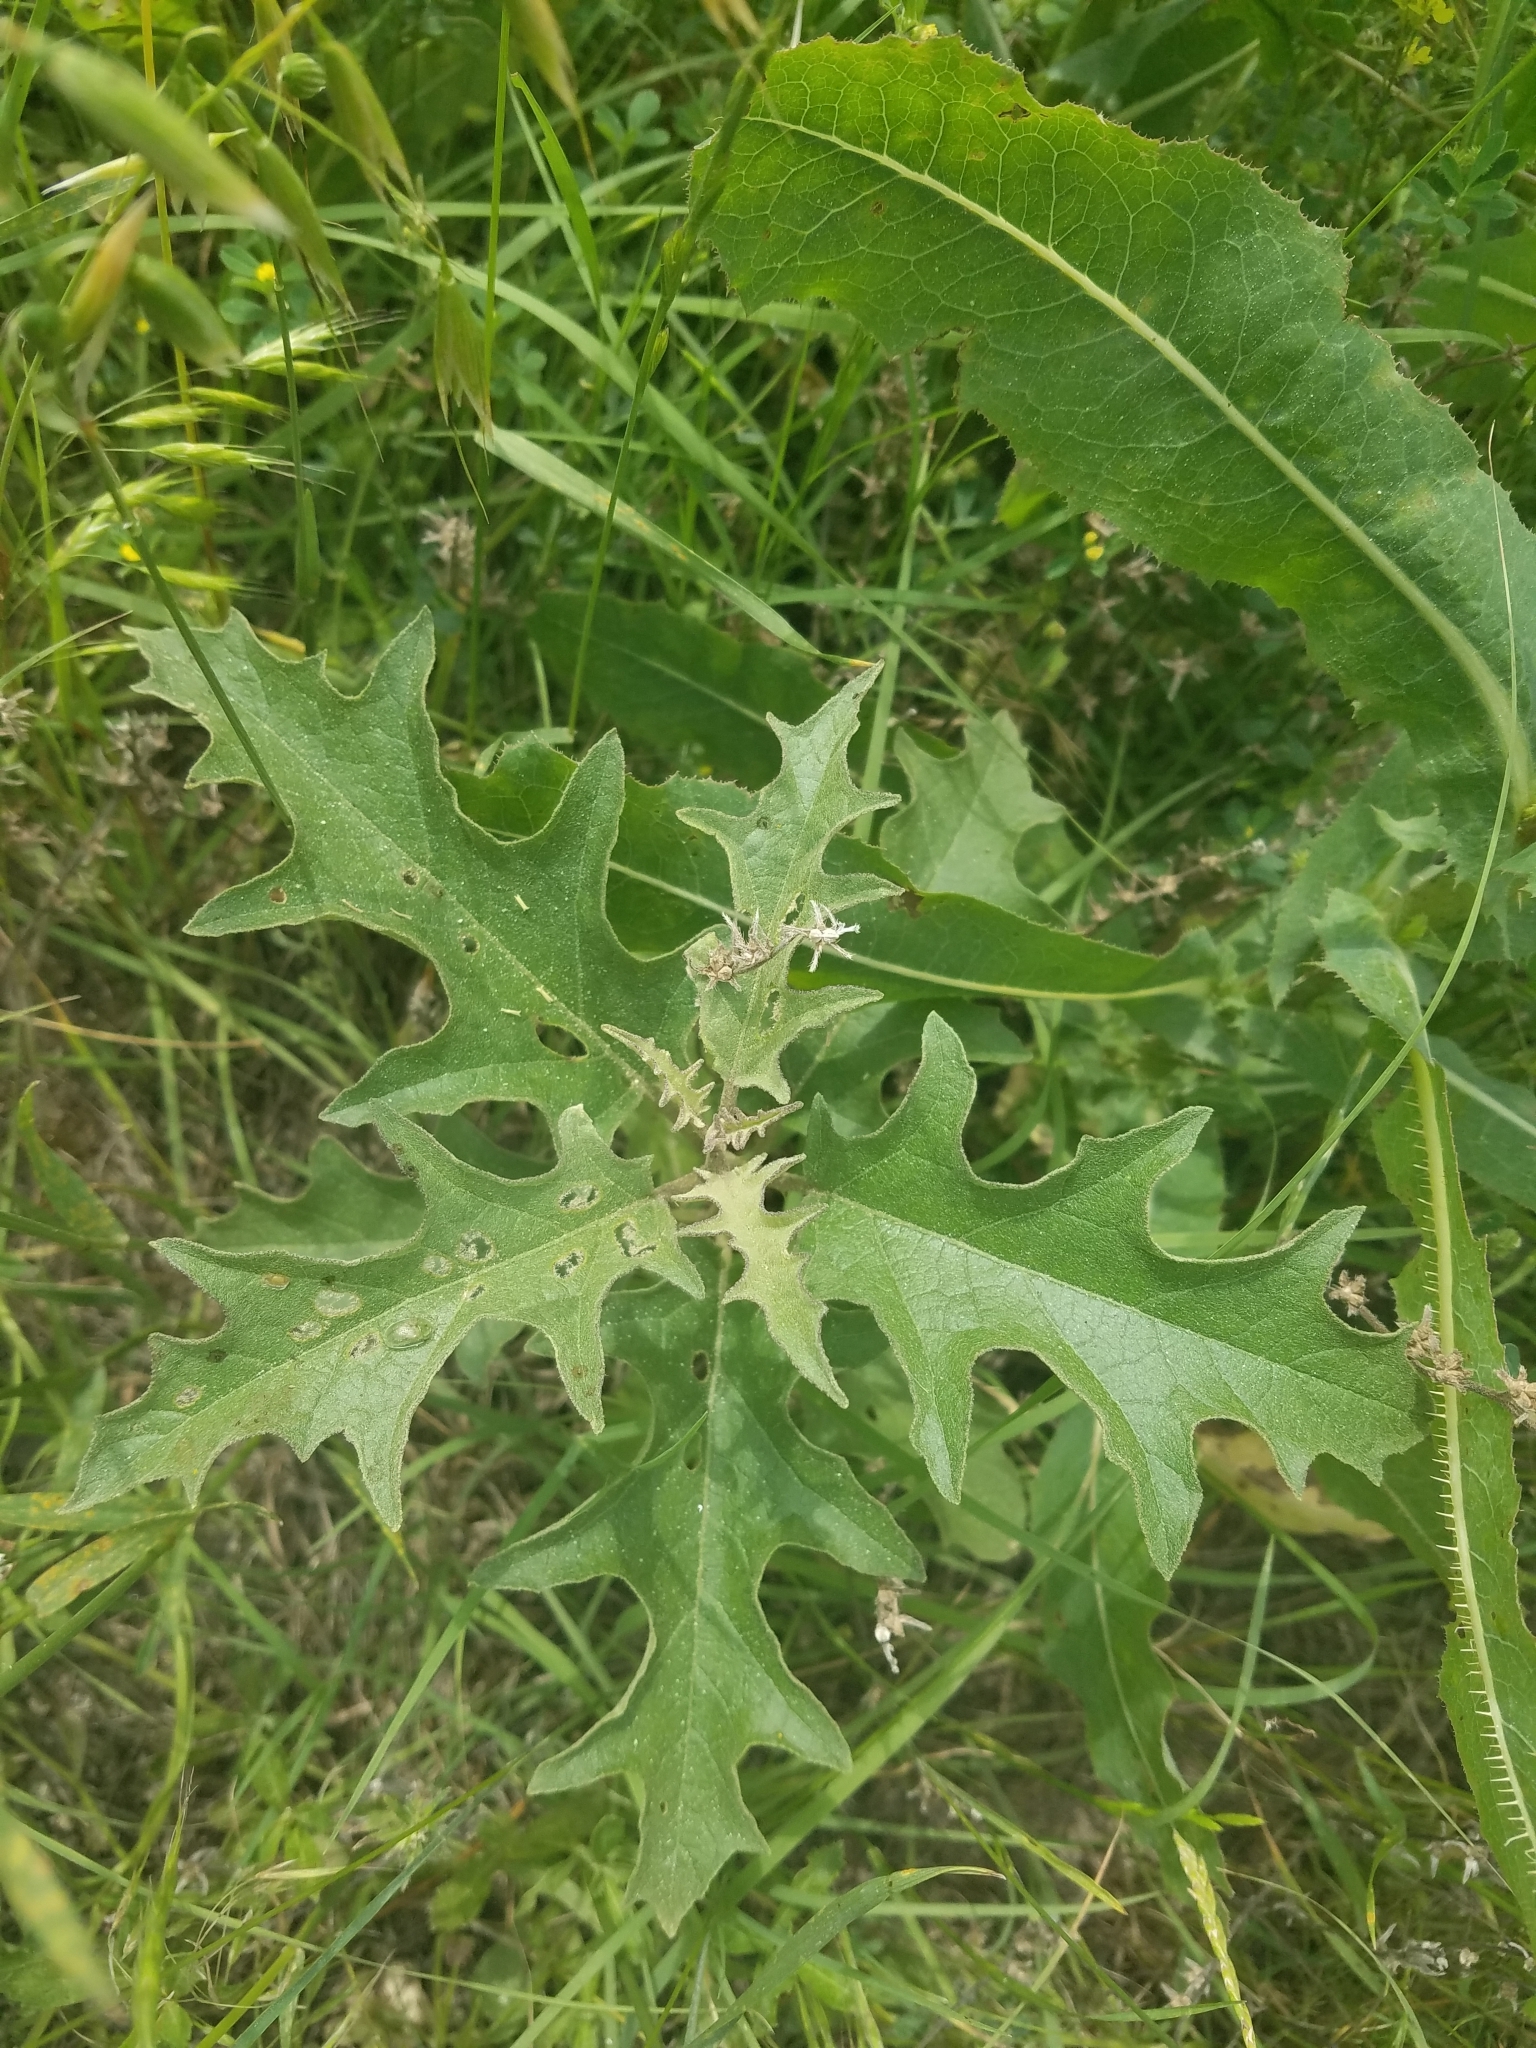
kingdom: Plantae
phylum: Tracheophyta
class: Magnoliopsida
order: Solanales
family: Solanaceae
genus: Solanum
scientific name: Solanum dimidiatum
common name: Carolina horse-nettle
